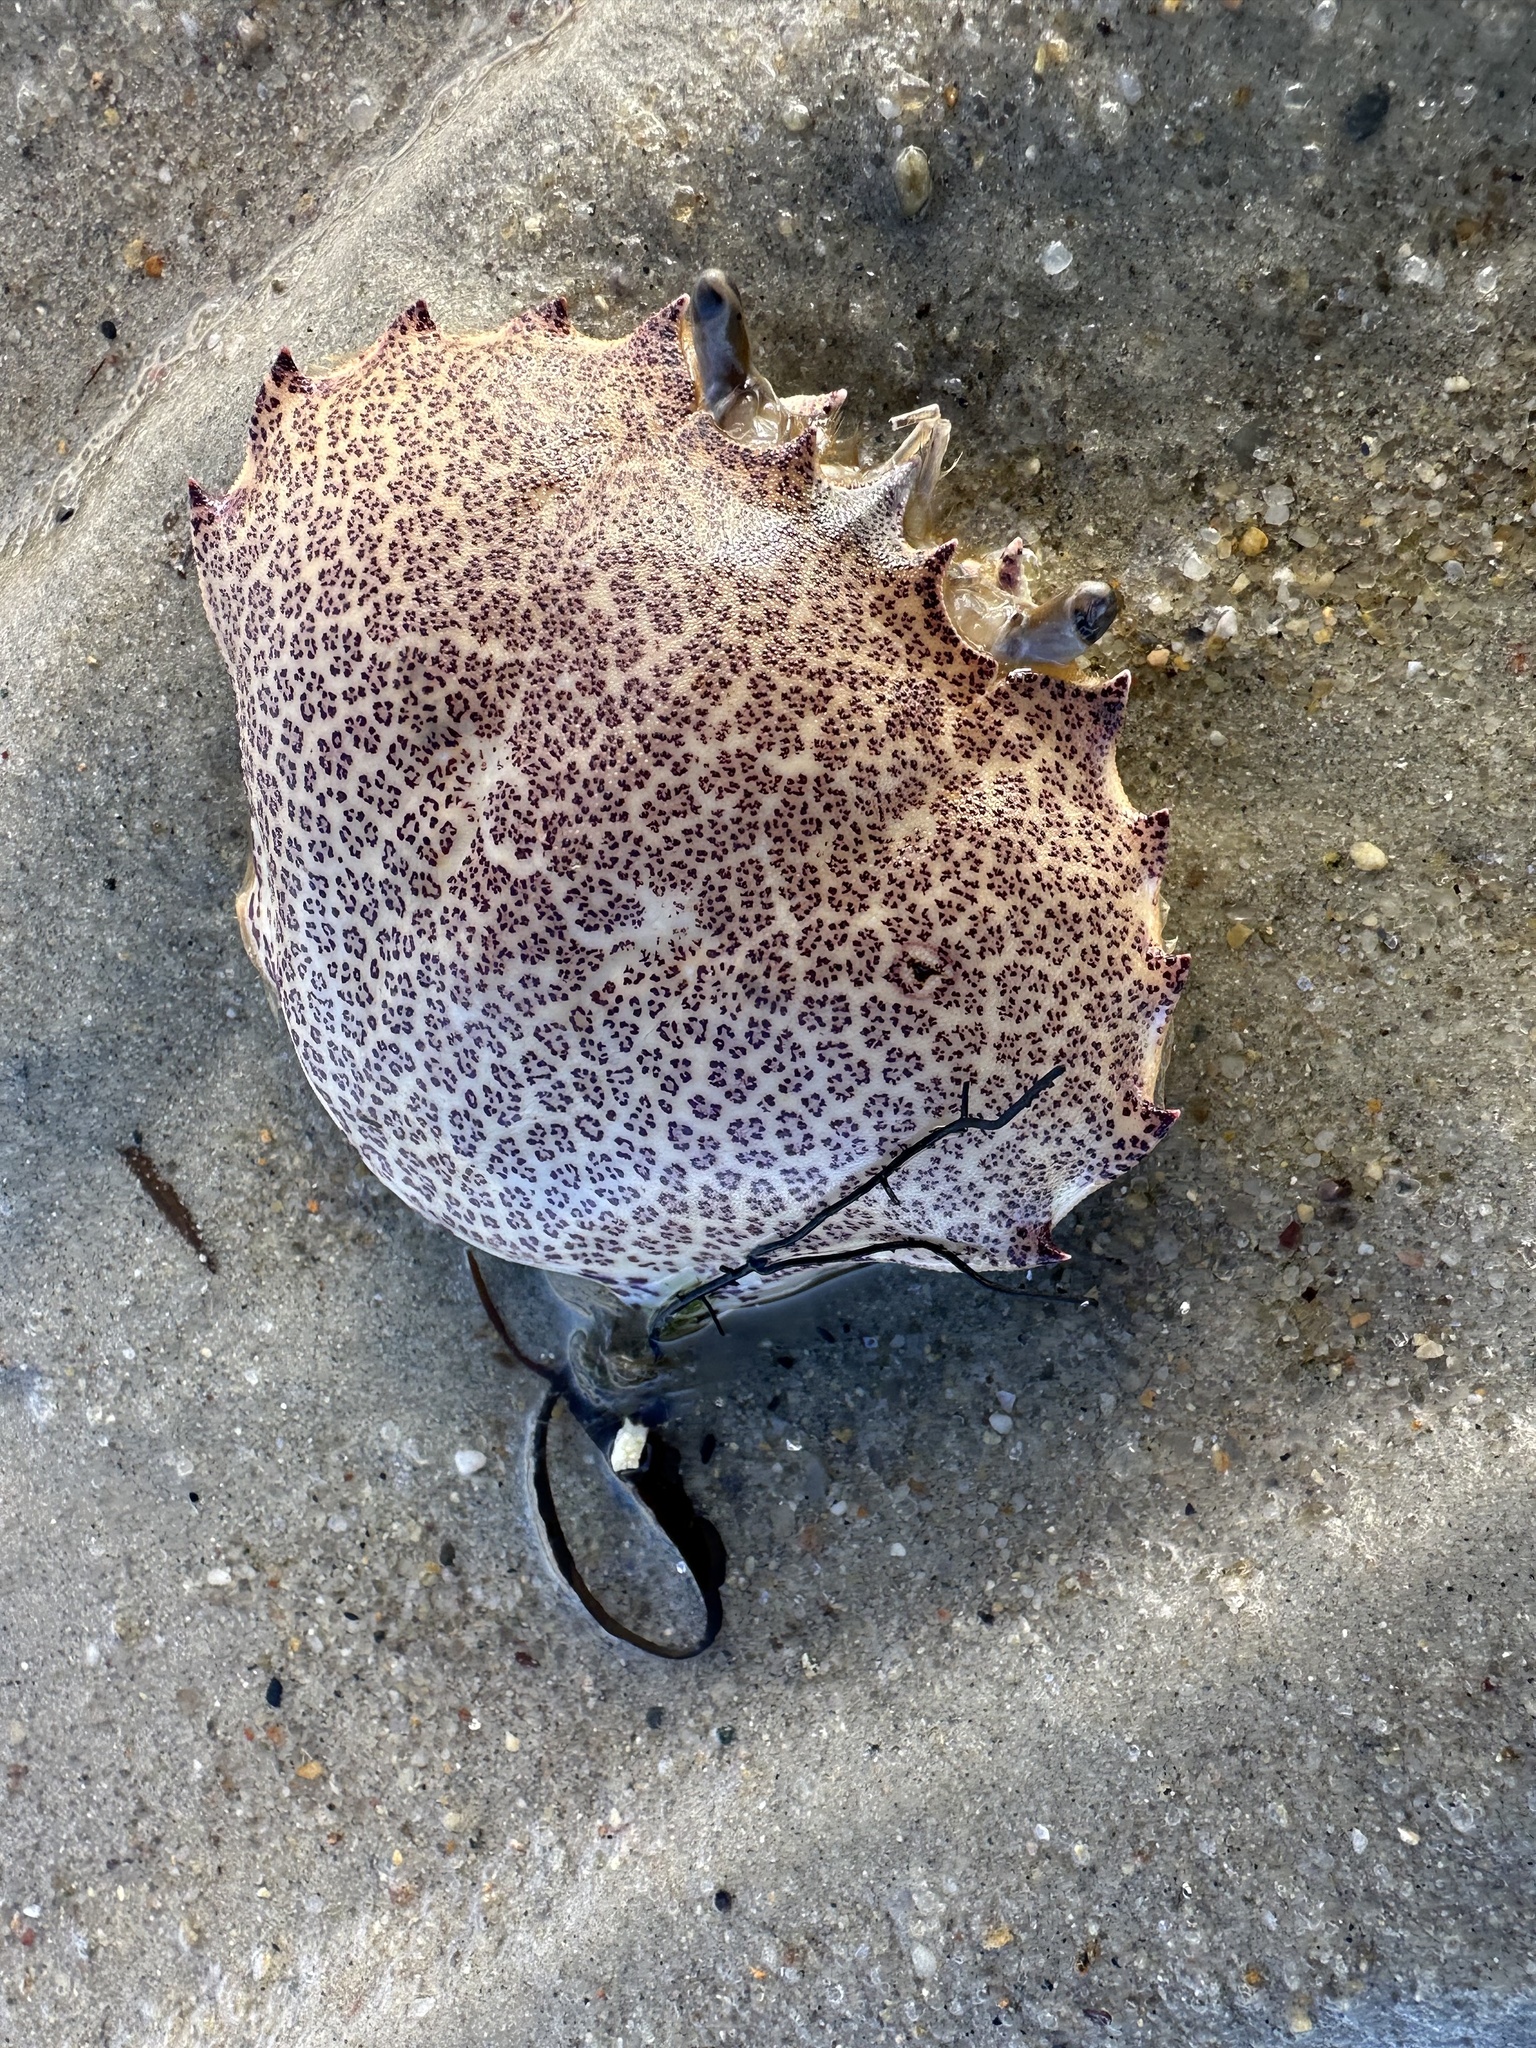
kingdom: Animalia
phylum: Arthropoda
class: Malacostraca
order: Decapoda
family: Ovalipidae
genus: Ovalipes
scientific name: Ovalipes ocellatus
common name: Lady crab
